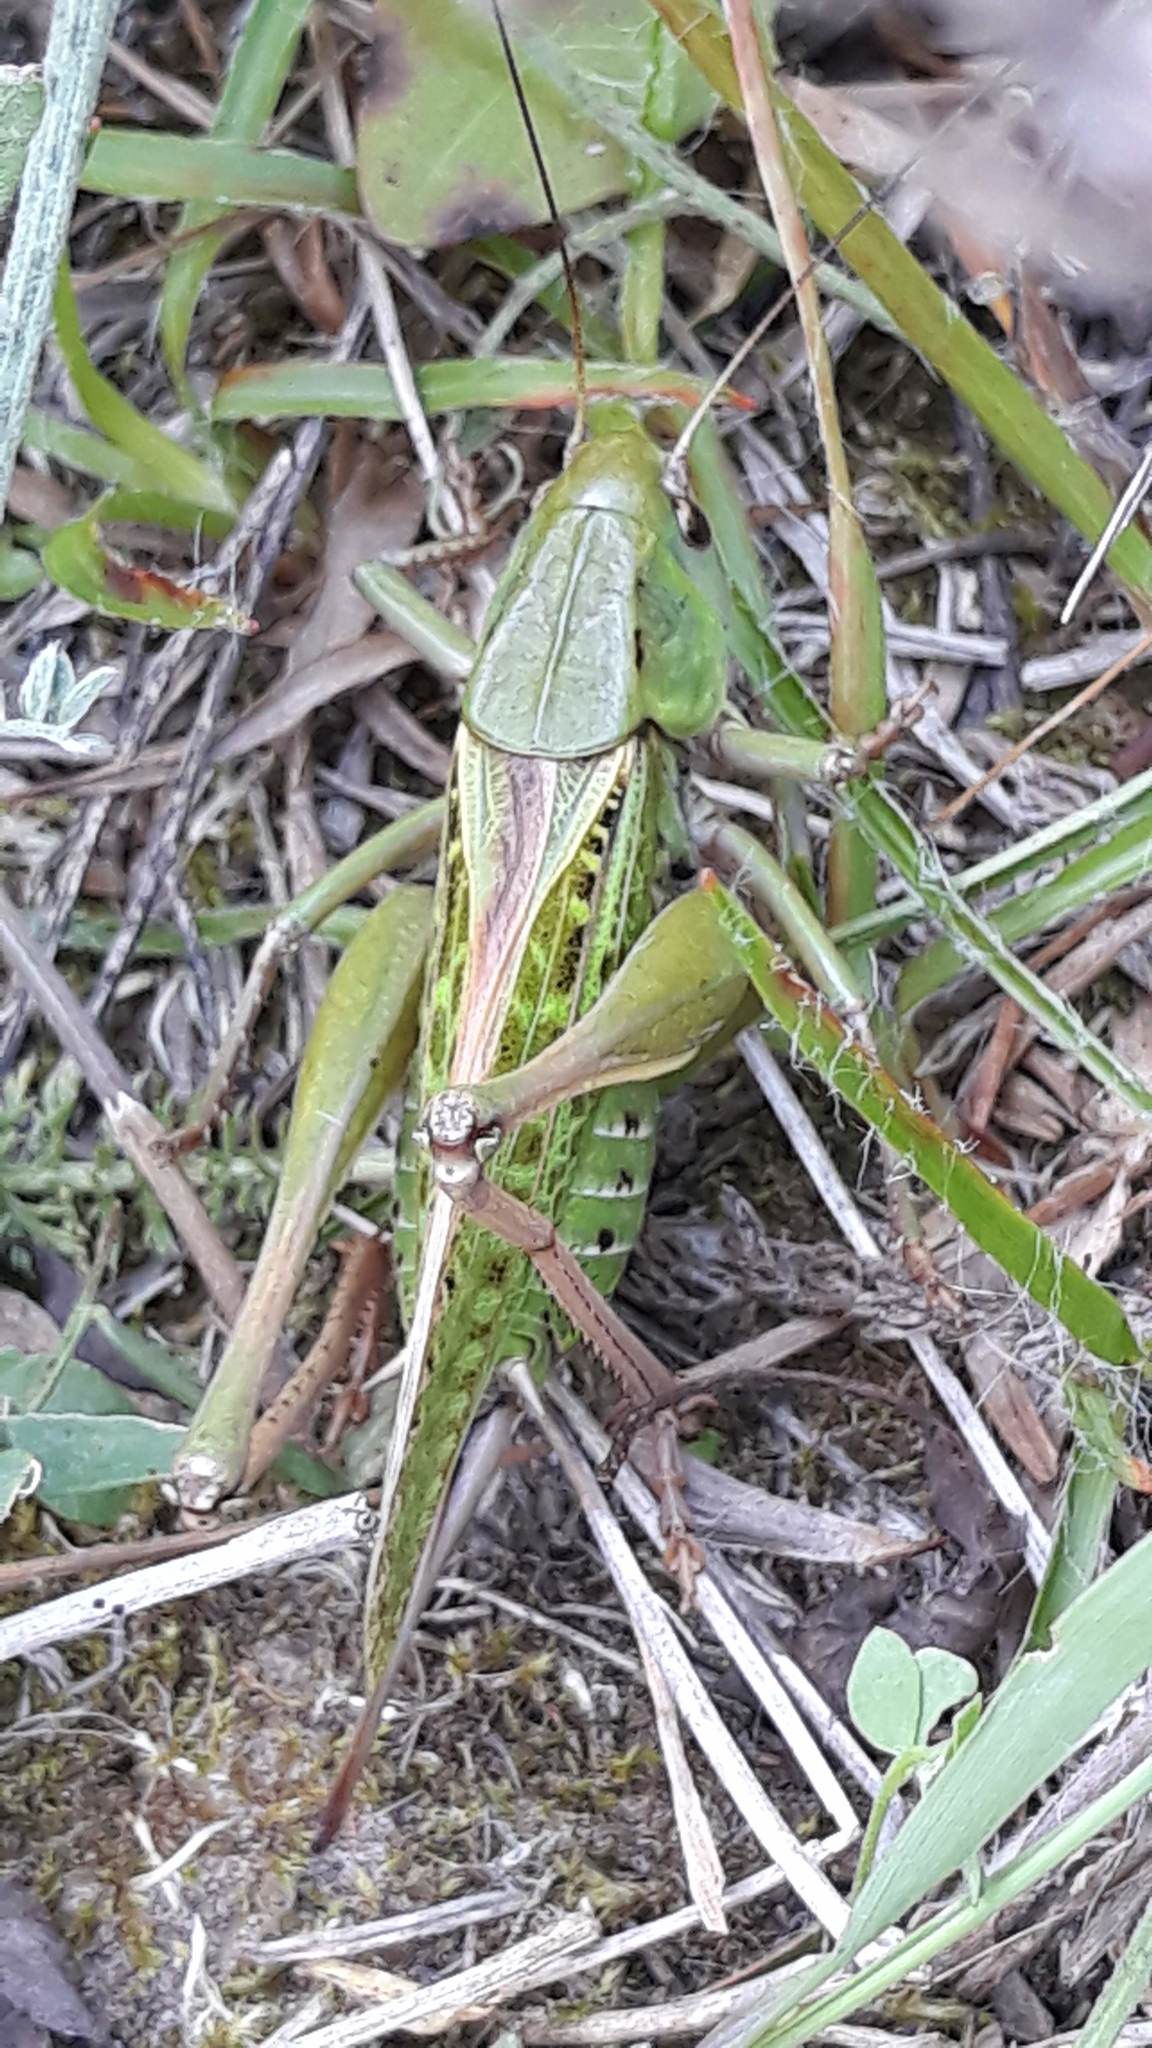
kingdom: Animalia
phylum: Arthropoda
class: Insecta
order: Orthoptera
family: Tettigoniidae
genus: Decticus
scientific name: Decticus verrucivorus
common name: Wart-biter
